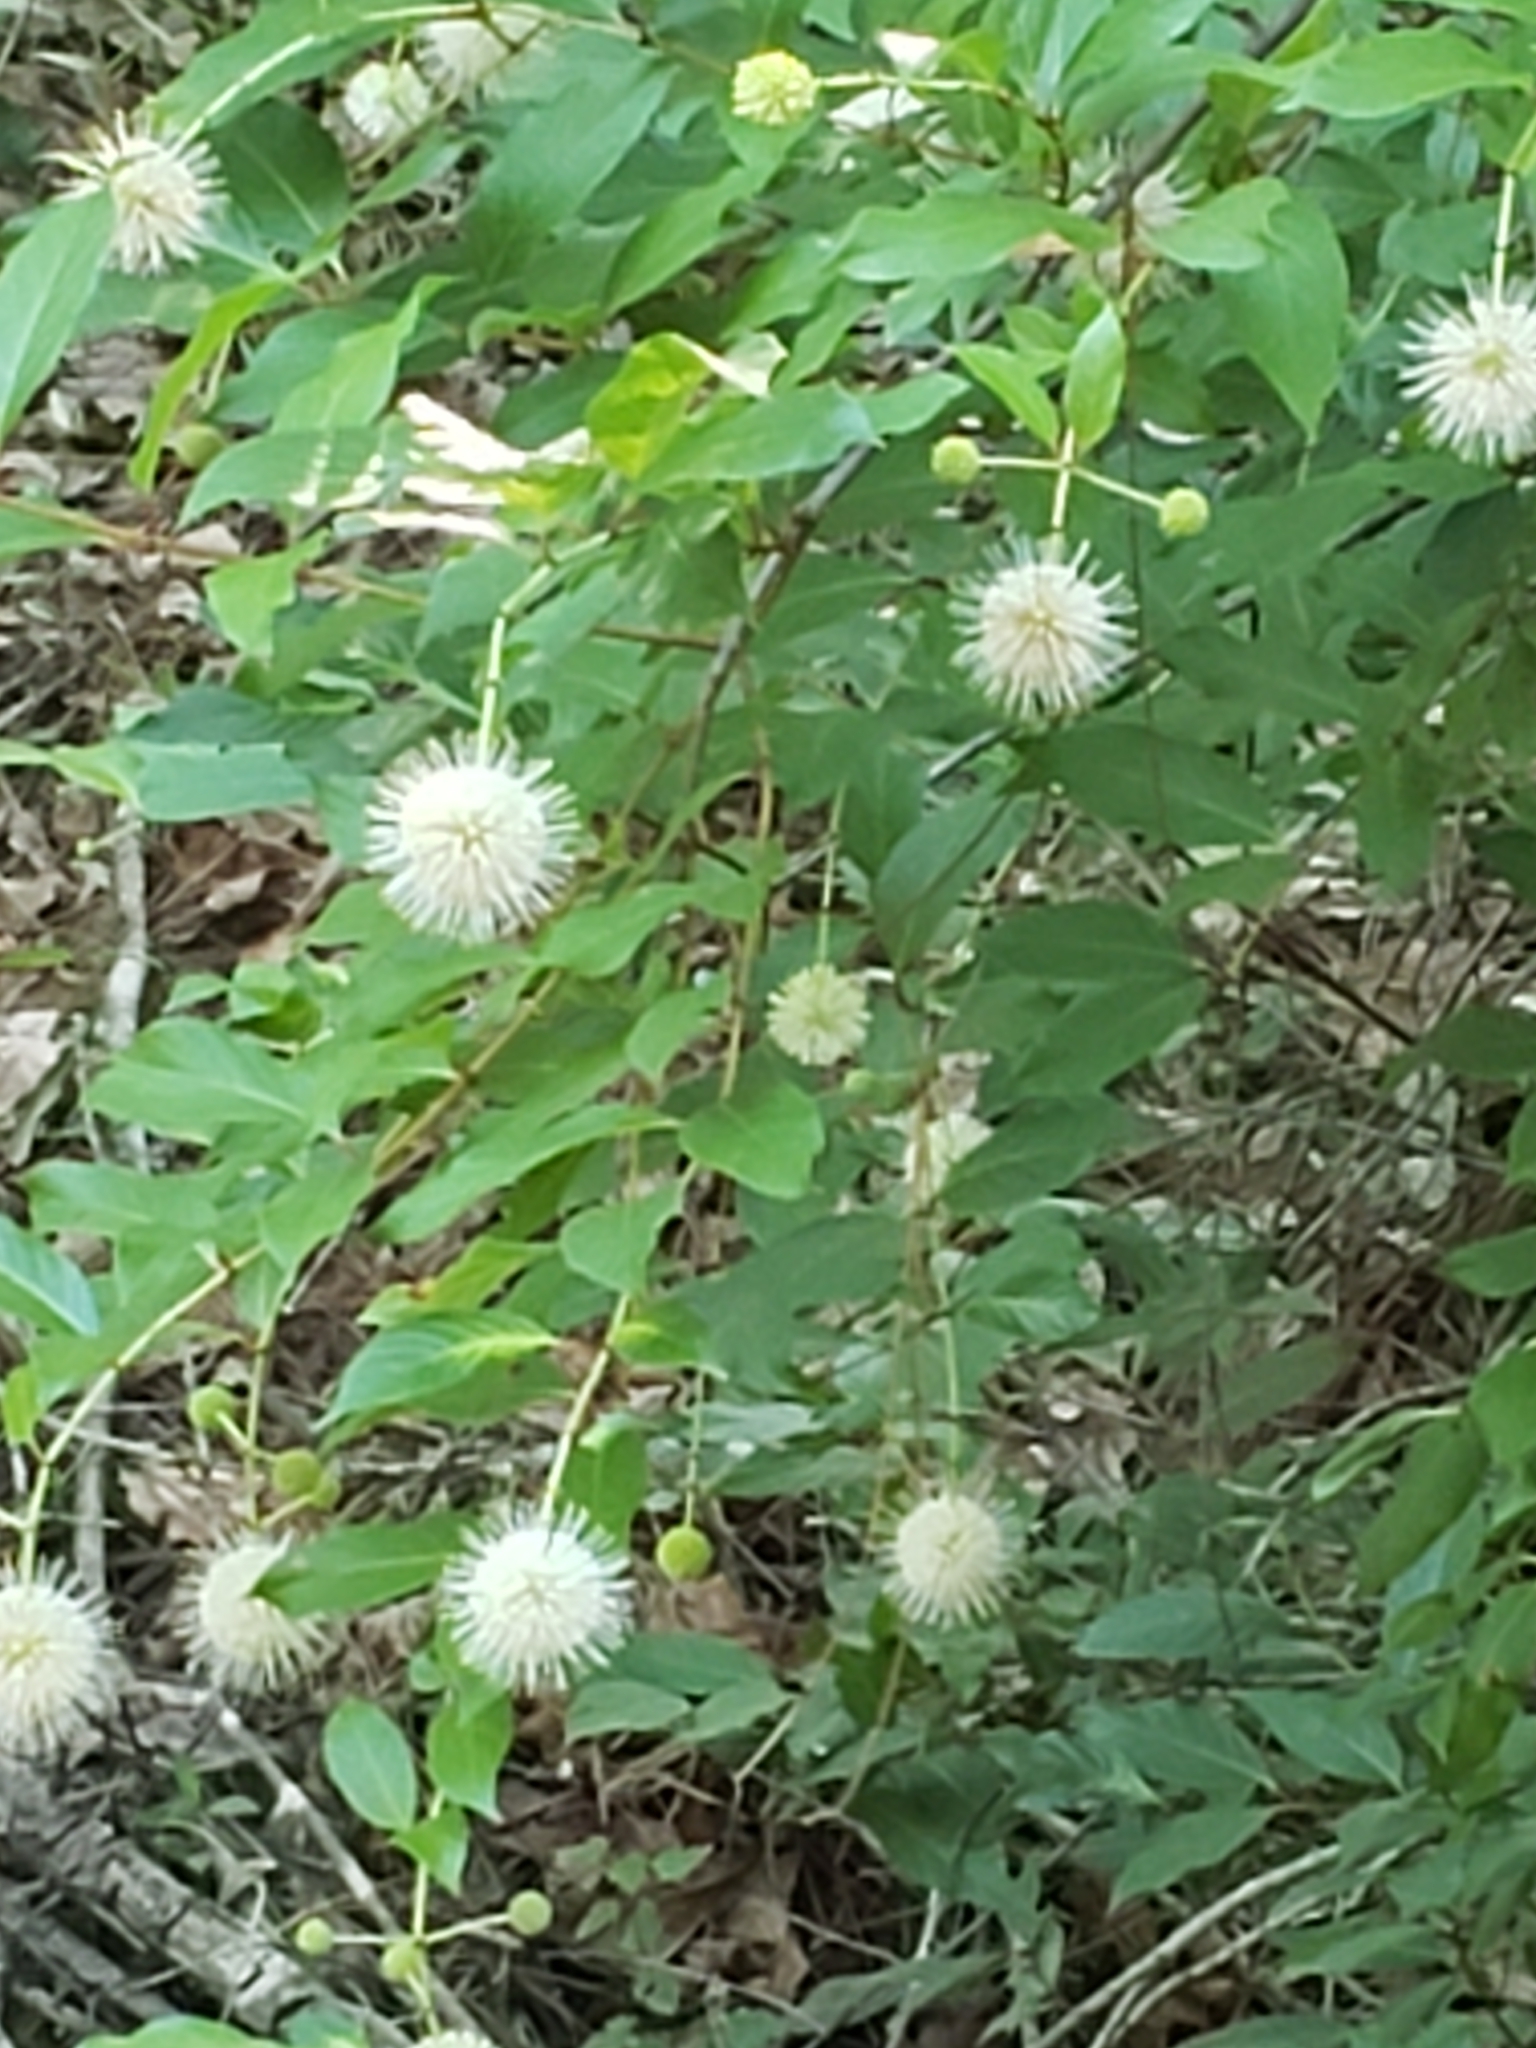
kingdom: Plantae
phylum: Tracheophyta
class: Magnoliopsida
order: Gentianales
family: Rubiaceae
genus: Cephalanthus
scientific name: Cephalanthus occidentalis
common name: Button-willow
